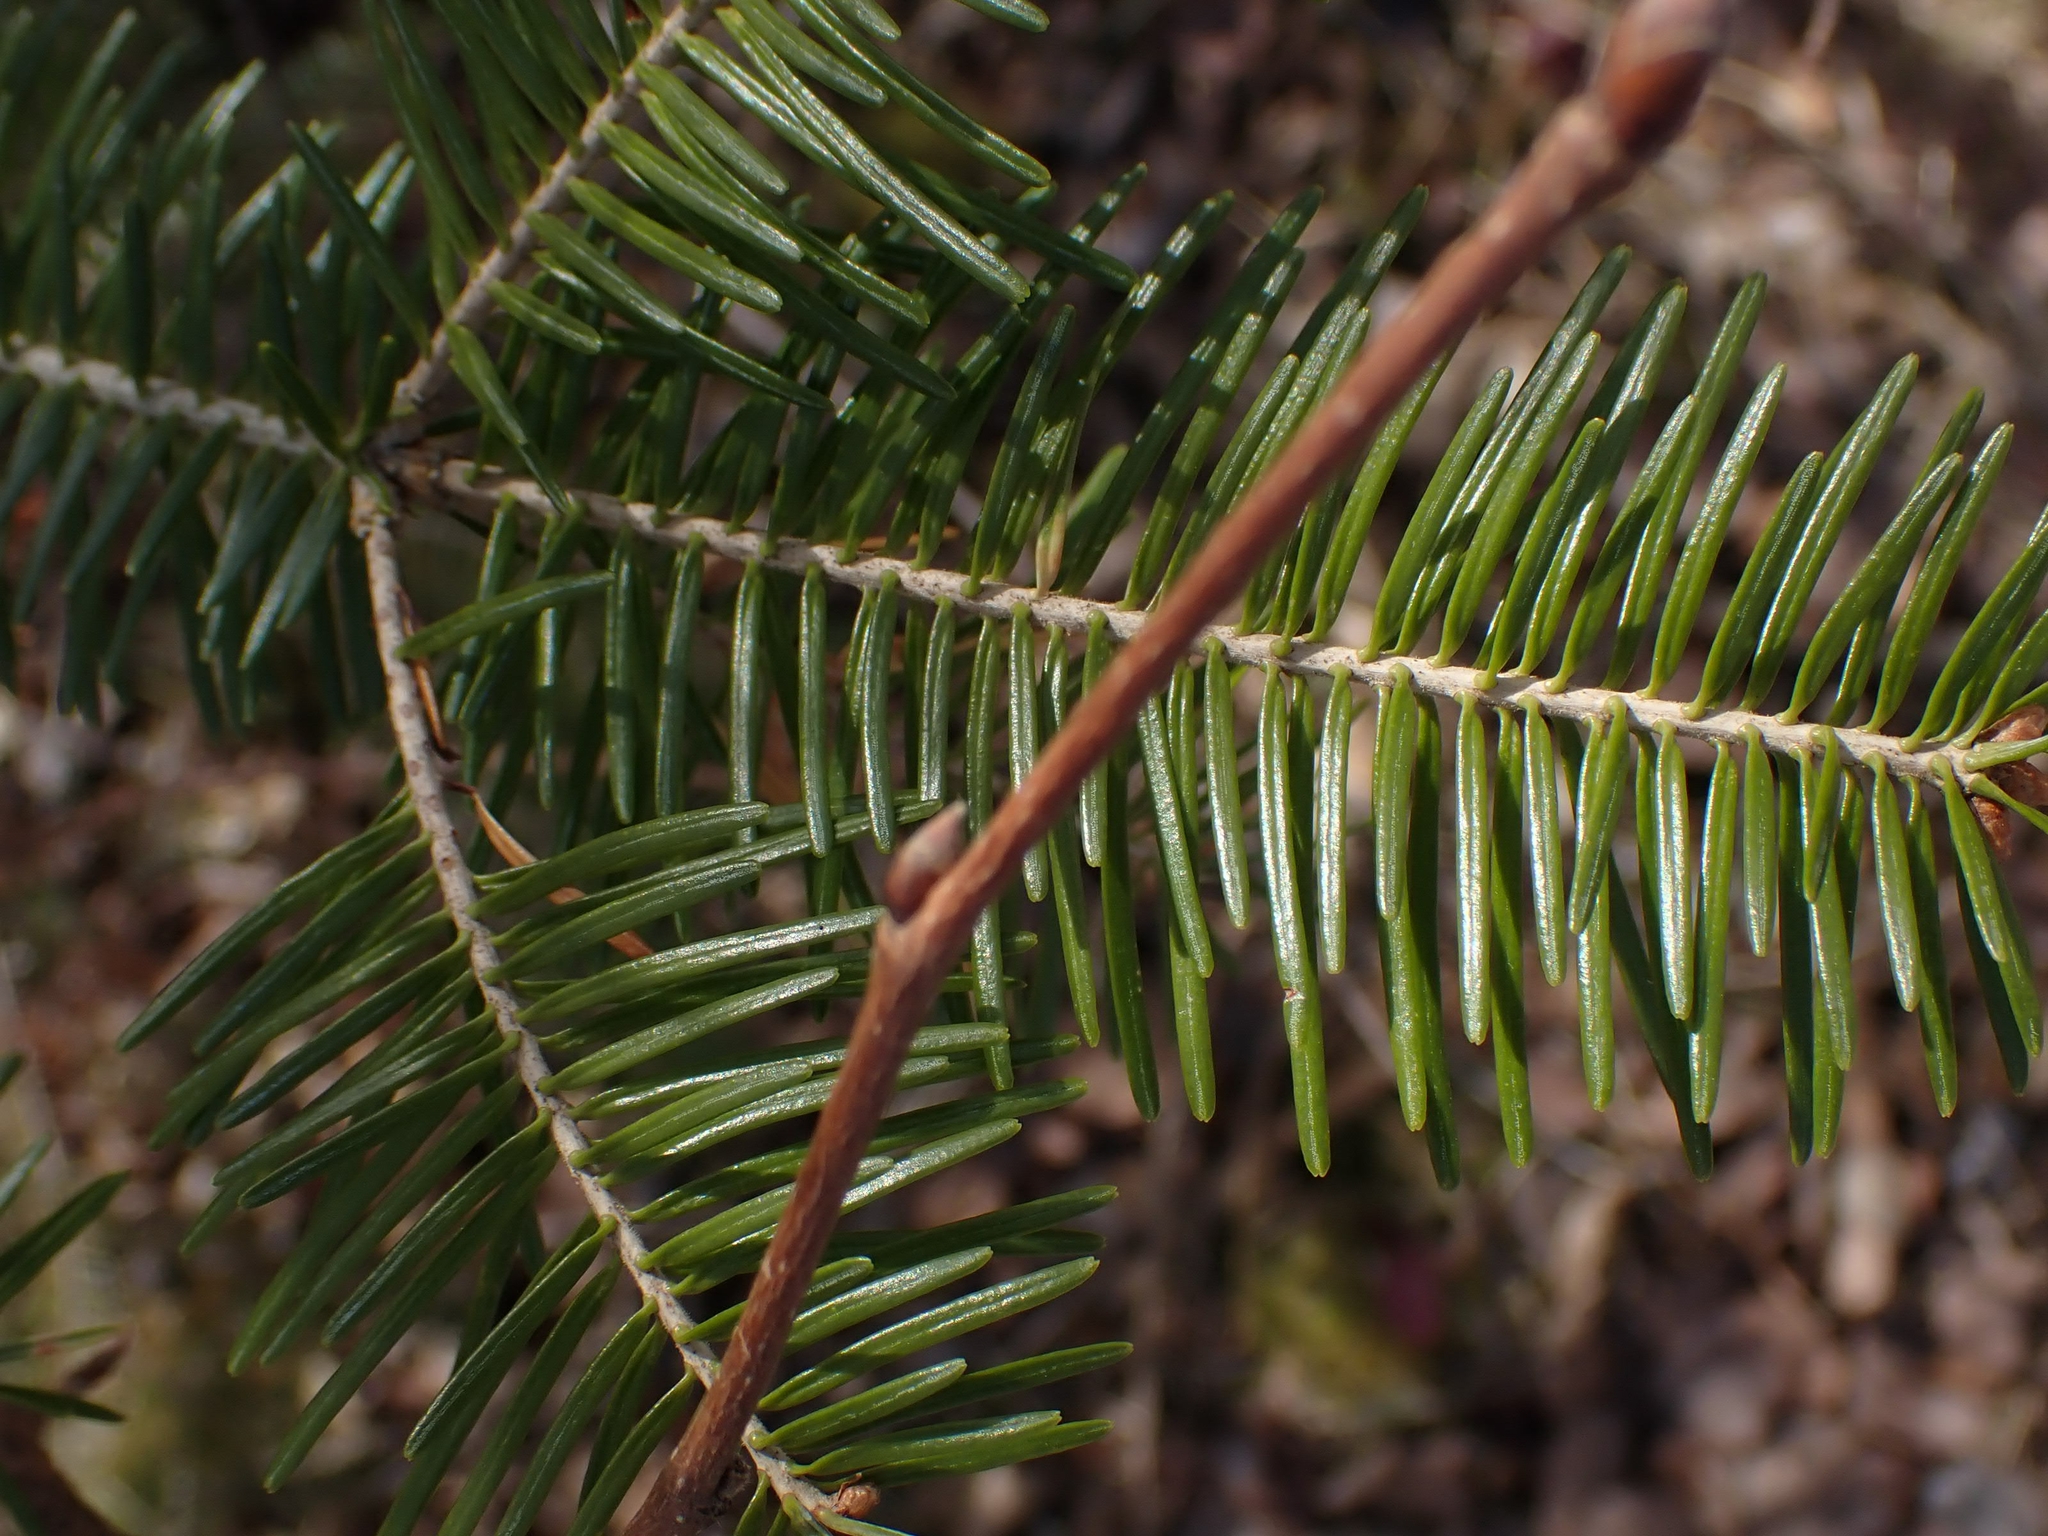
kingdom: Plantae
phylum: Tracheophyta
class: Pinopsida
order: Pinales
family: Pinaceae
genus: Abies
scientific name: Abies balsamea
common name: Balsam fir
